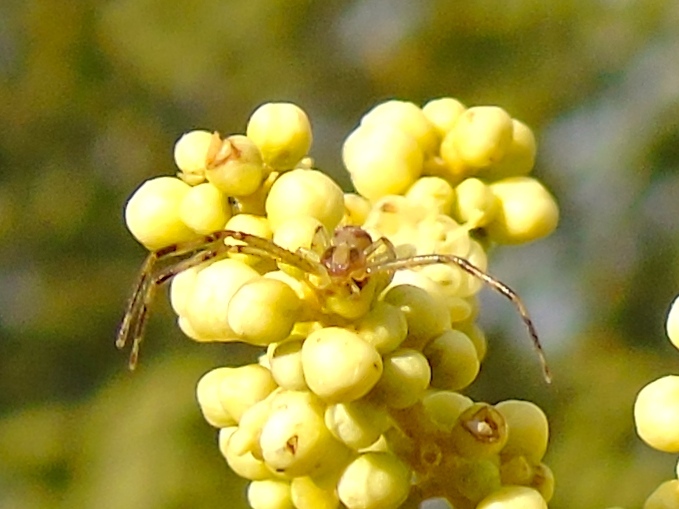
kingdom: Animalia
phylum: Arthropoda
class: Arachnida
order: Araneae
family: Thomisidae
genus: Mecaphesa
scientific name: Mecaphesa
